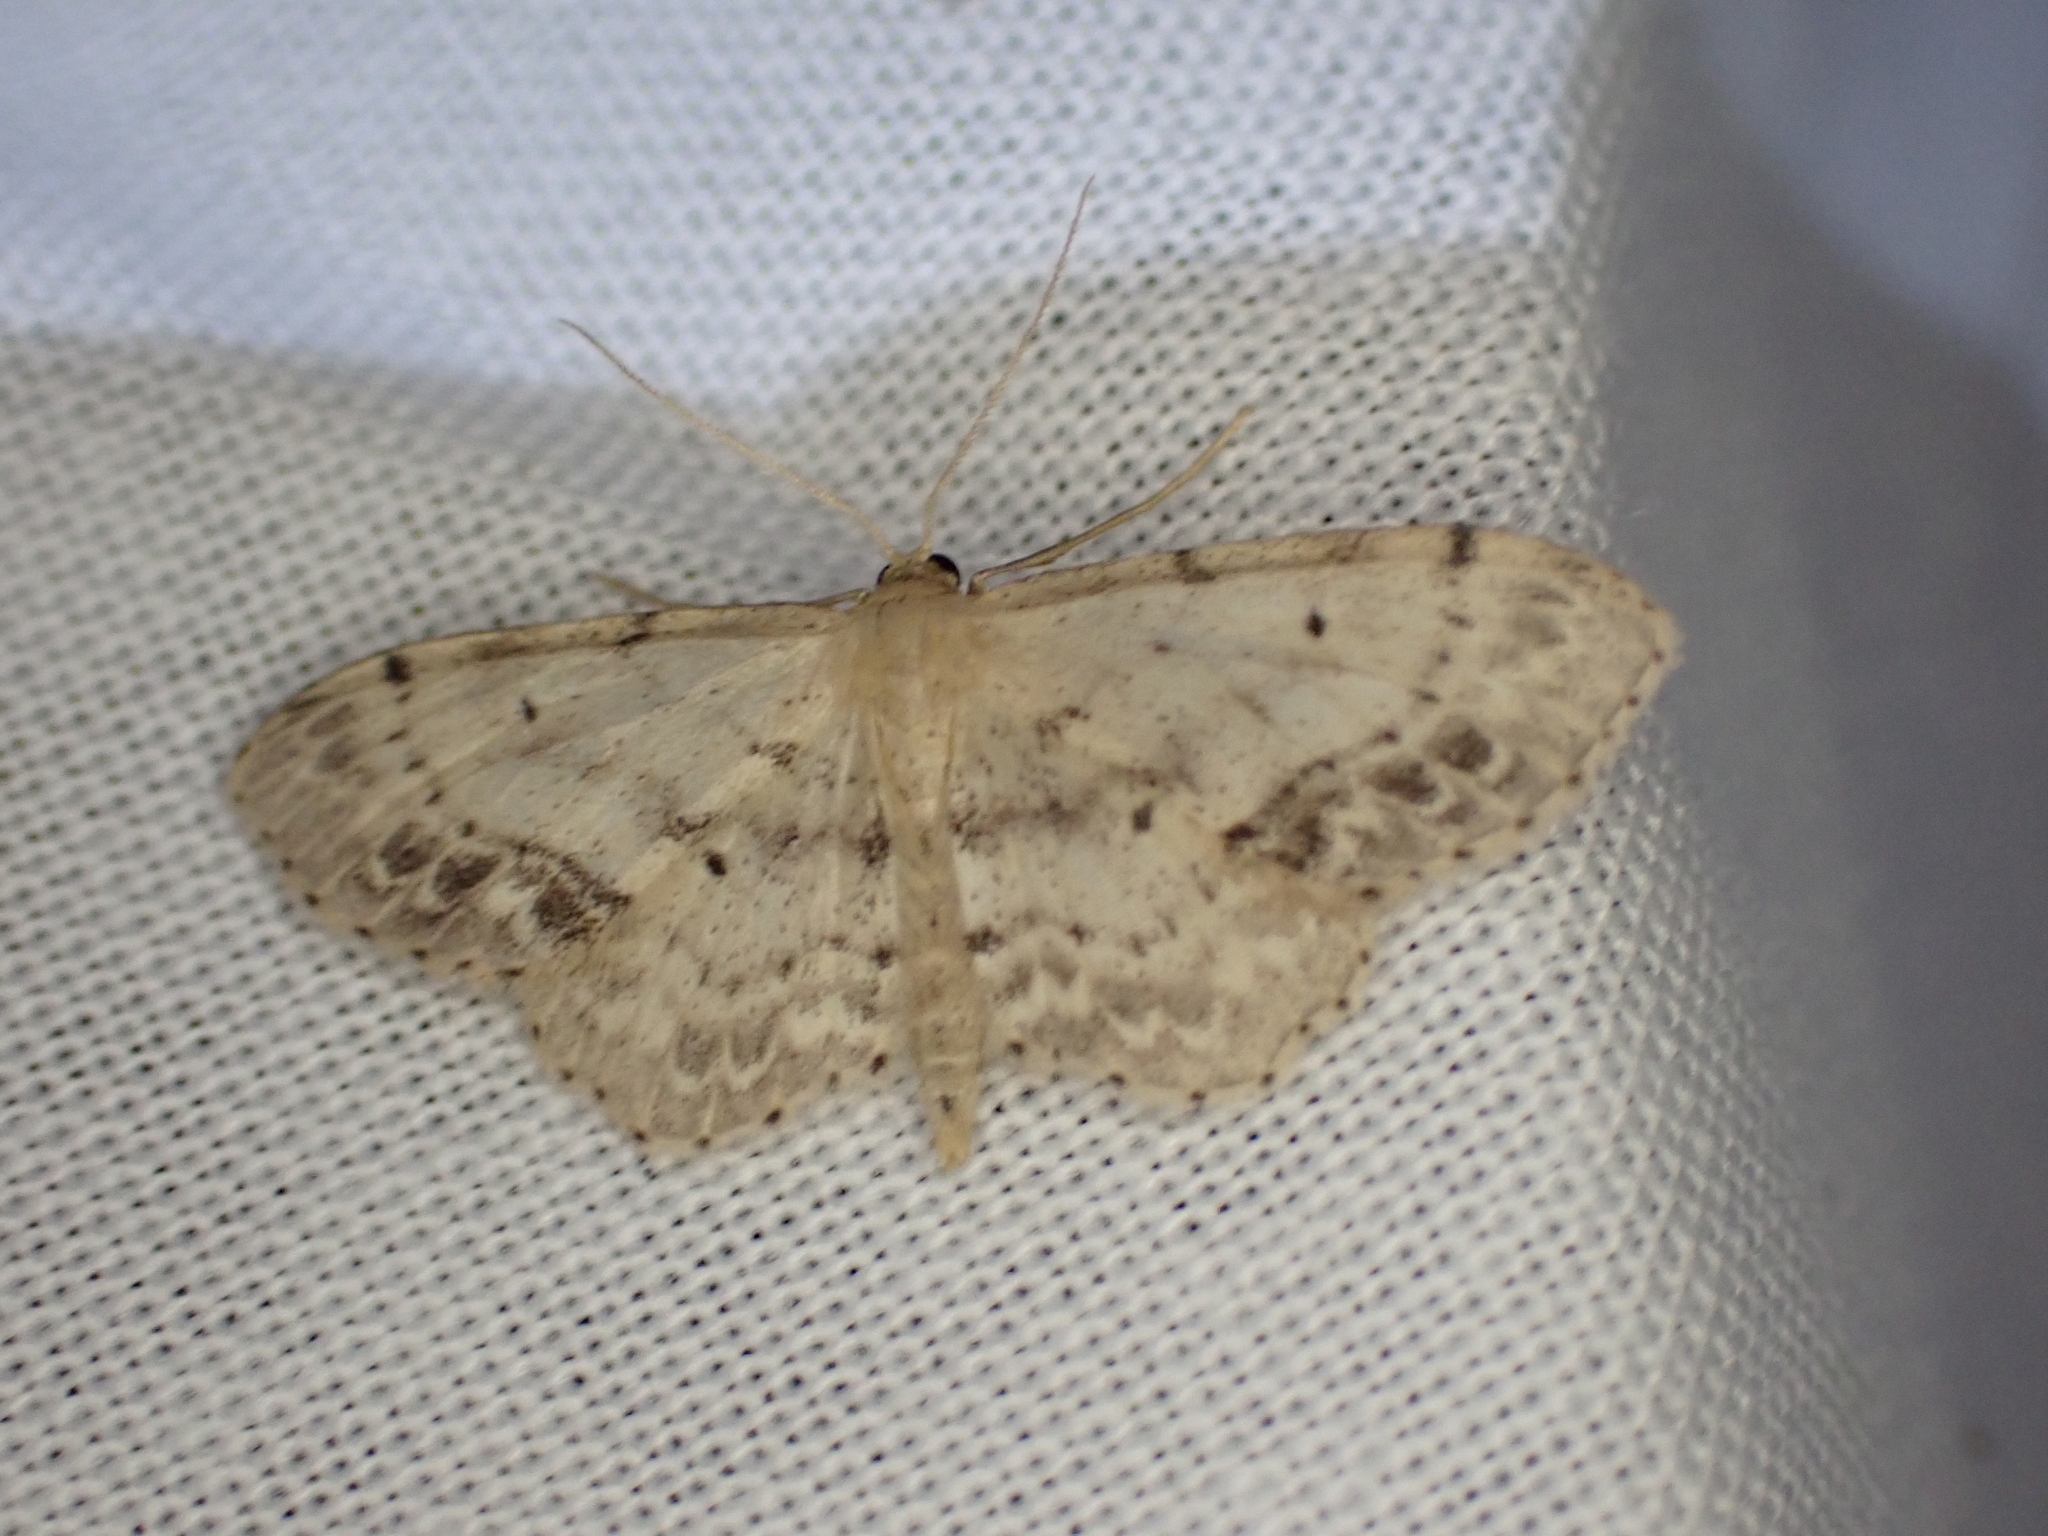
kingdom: Animalia
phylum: Arthropoda
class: Insecta
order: Lepidoptera
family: Geometridae
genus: Idaea
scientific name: Idaea dimidiata
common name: Single-dotted wave
